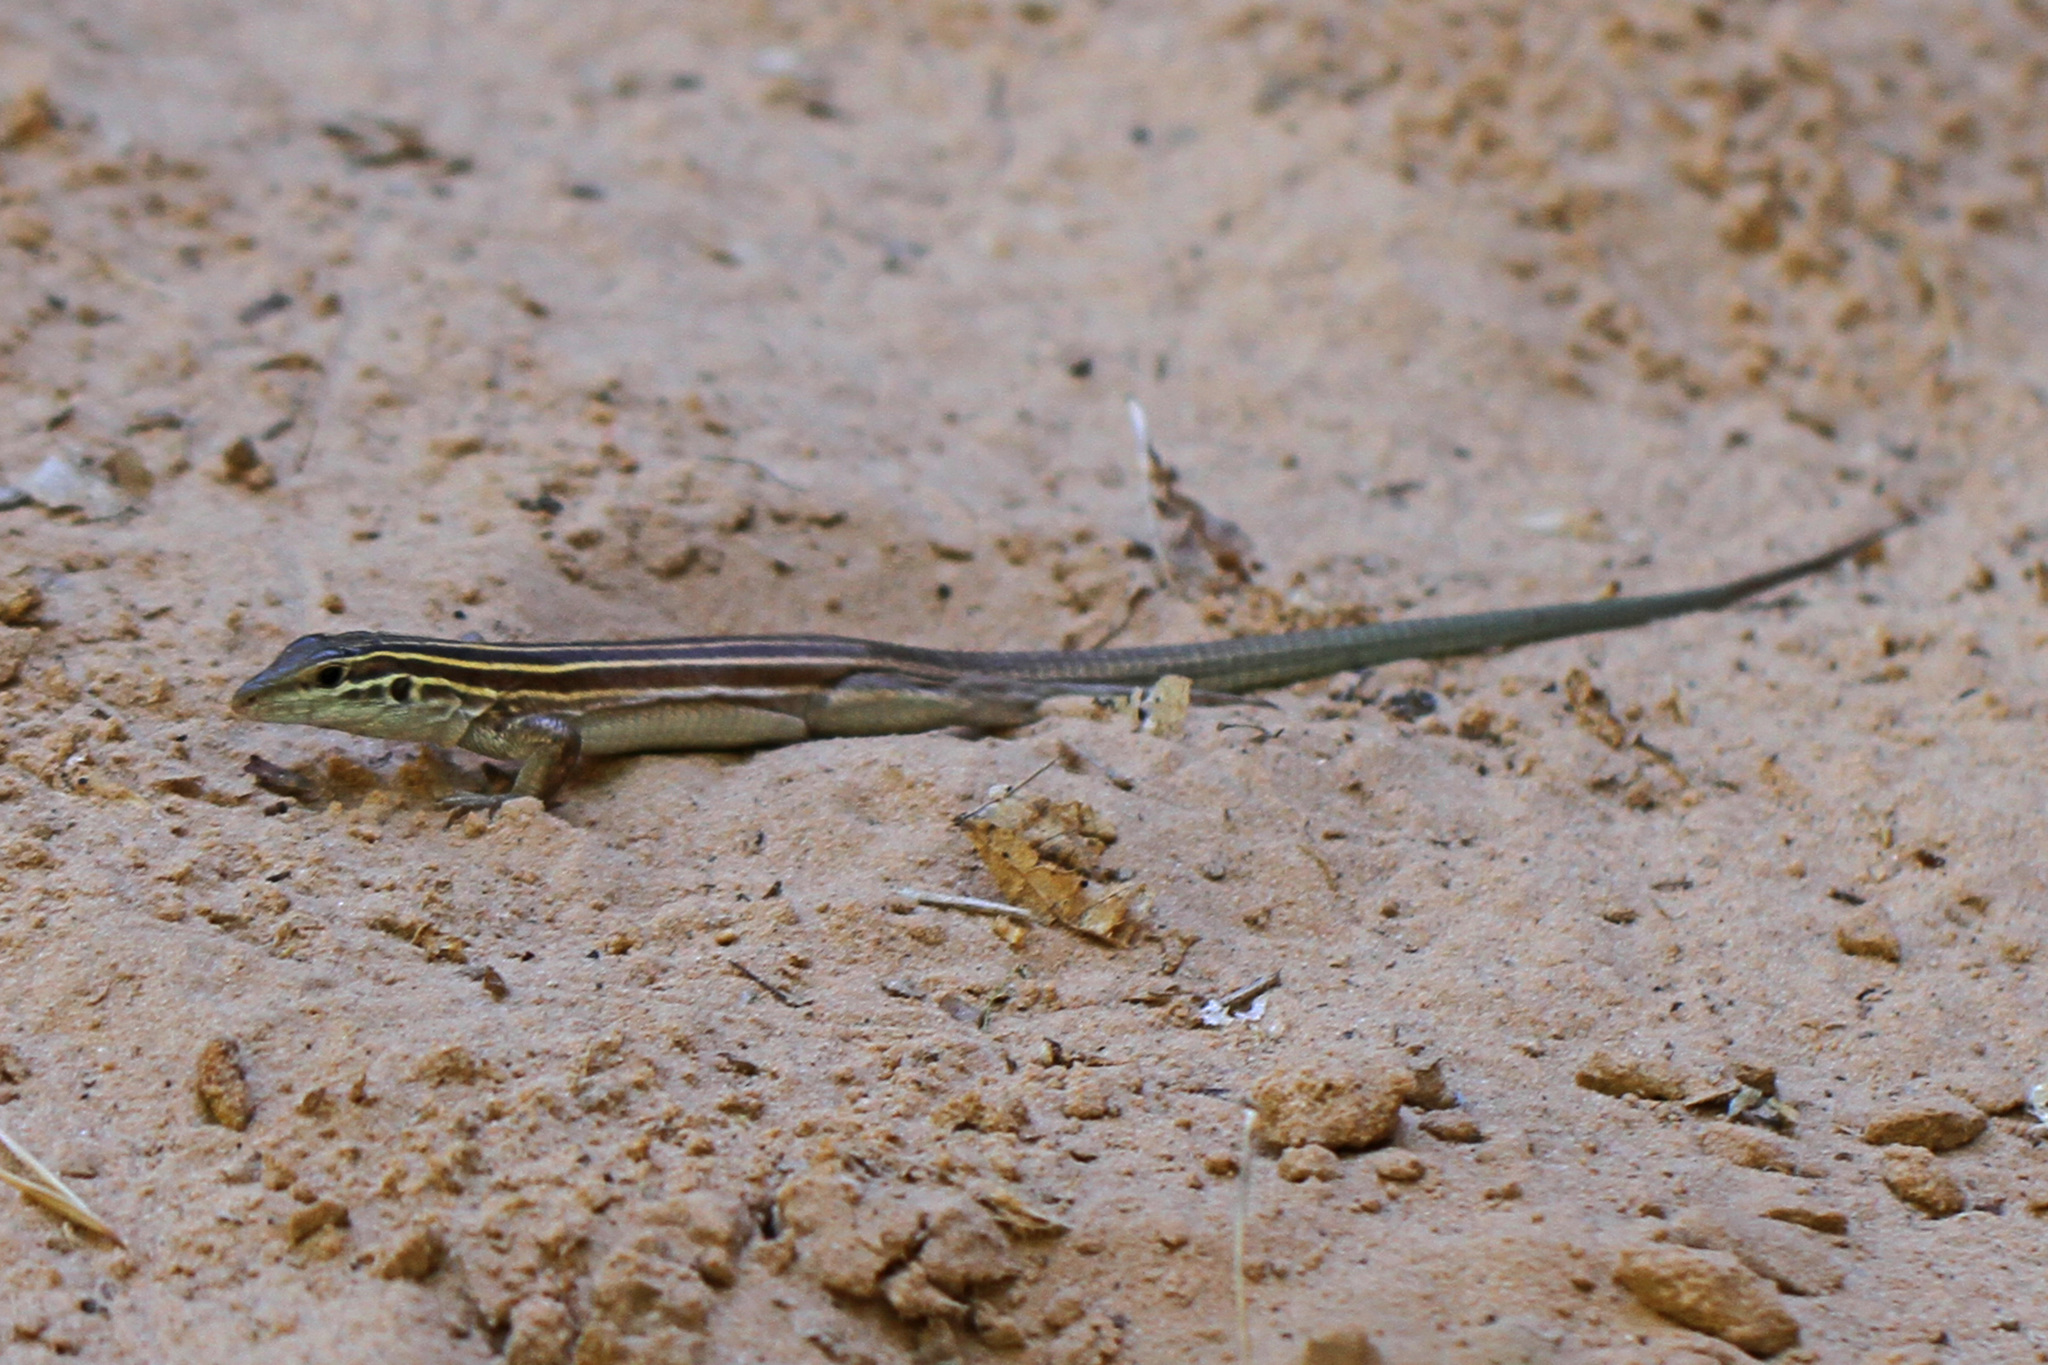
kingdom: Animalia
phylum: Chordata
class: Squamata
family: Teiidae
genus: Aspidoscelis
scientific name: Aspidoscelis velox
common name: Plateau striped whiptail
